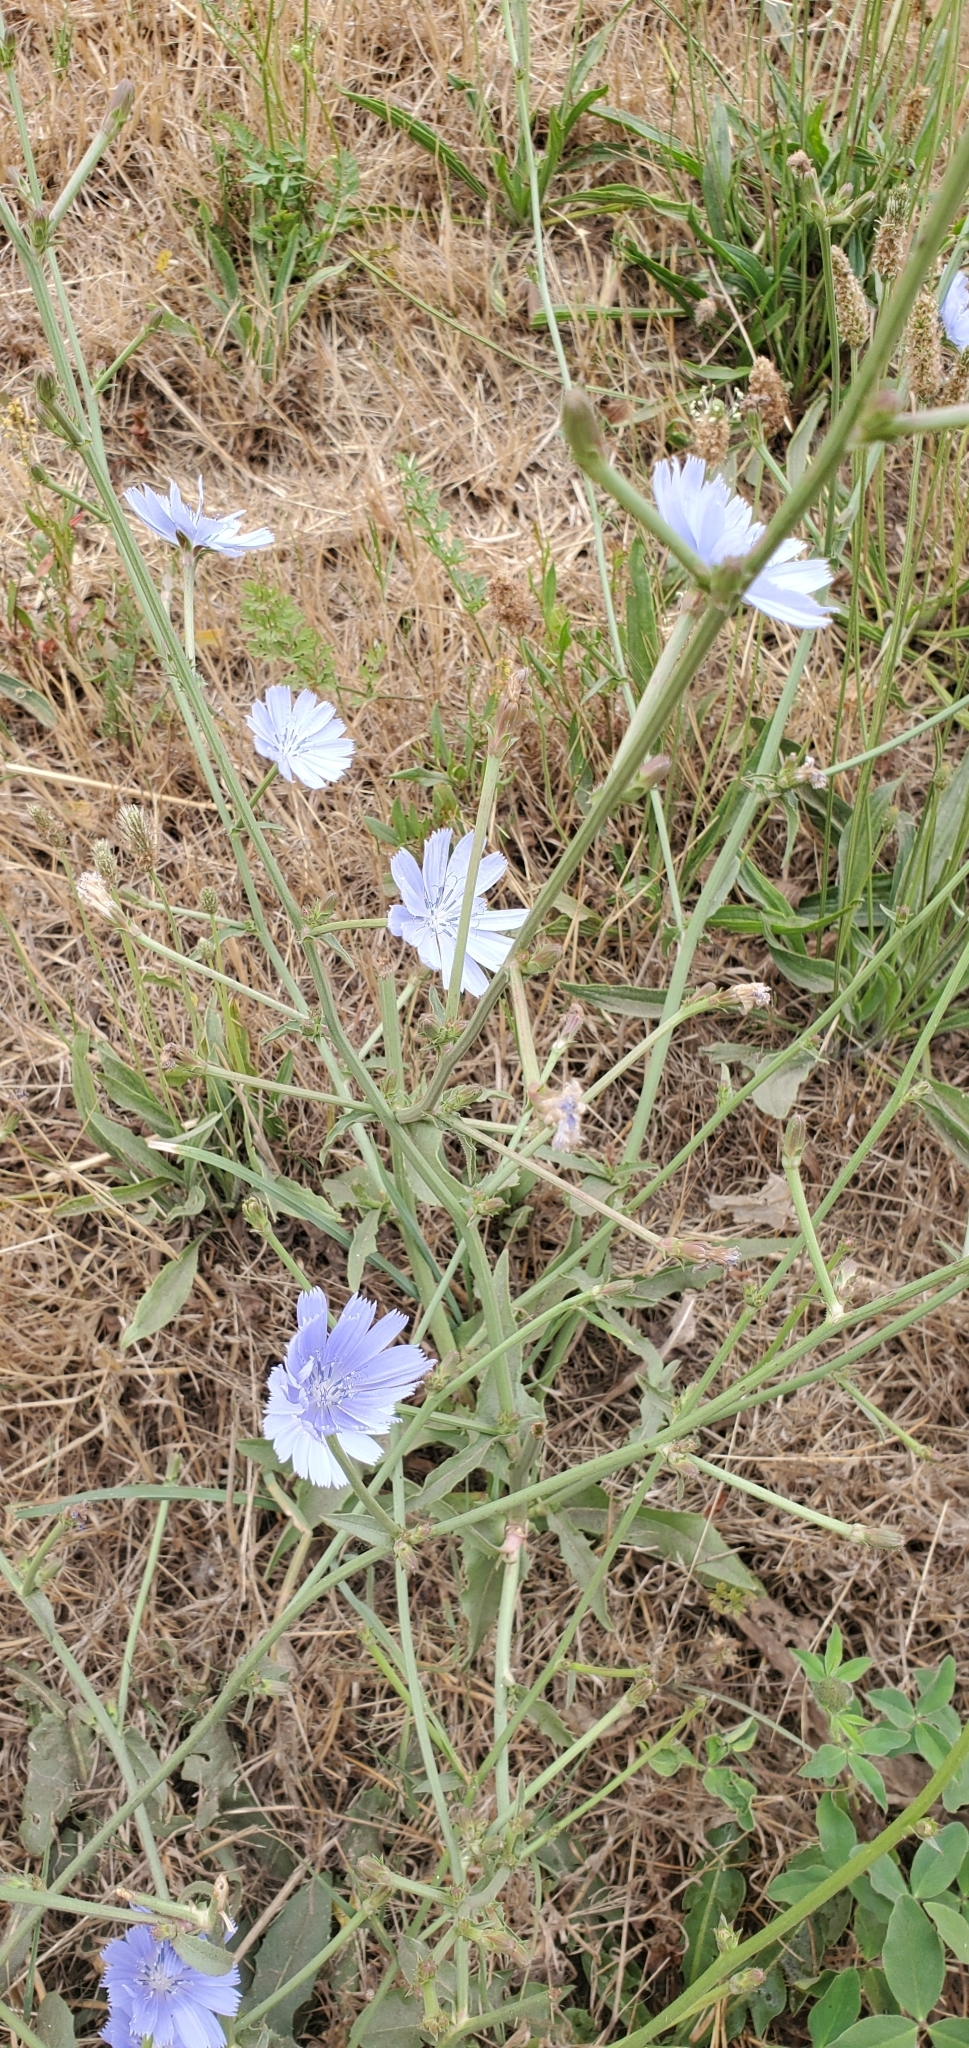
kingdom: Plantae
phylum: Tracheophyta
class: Magnoliopsida
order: Asterales
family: Asteraceae
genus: Cichorium
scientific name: Cichorium intybus
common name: Chicory
